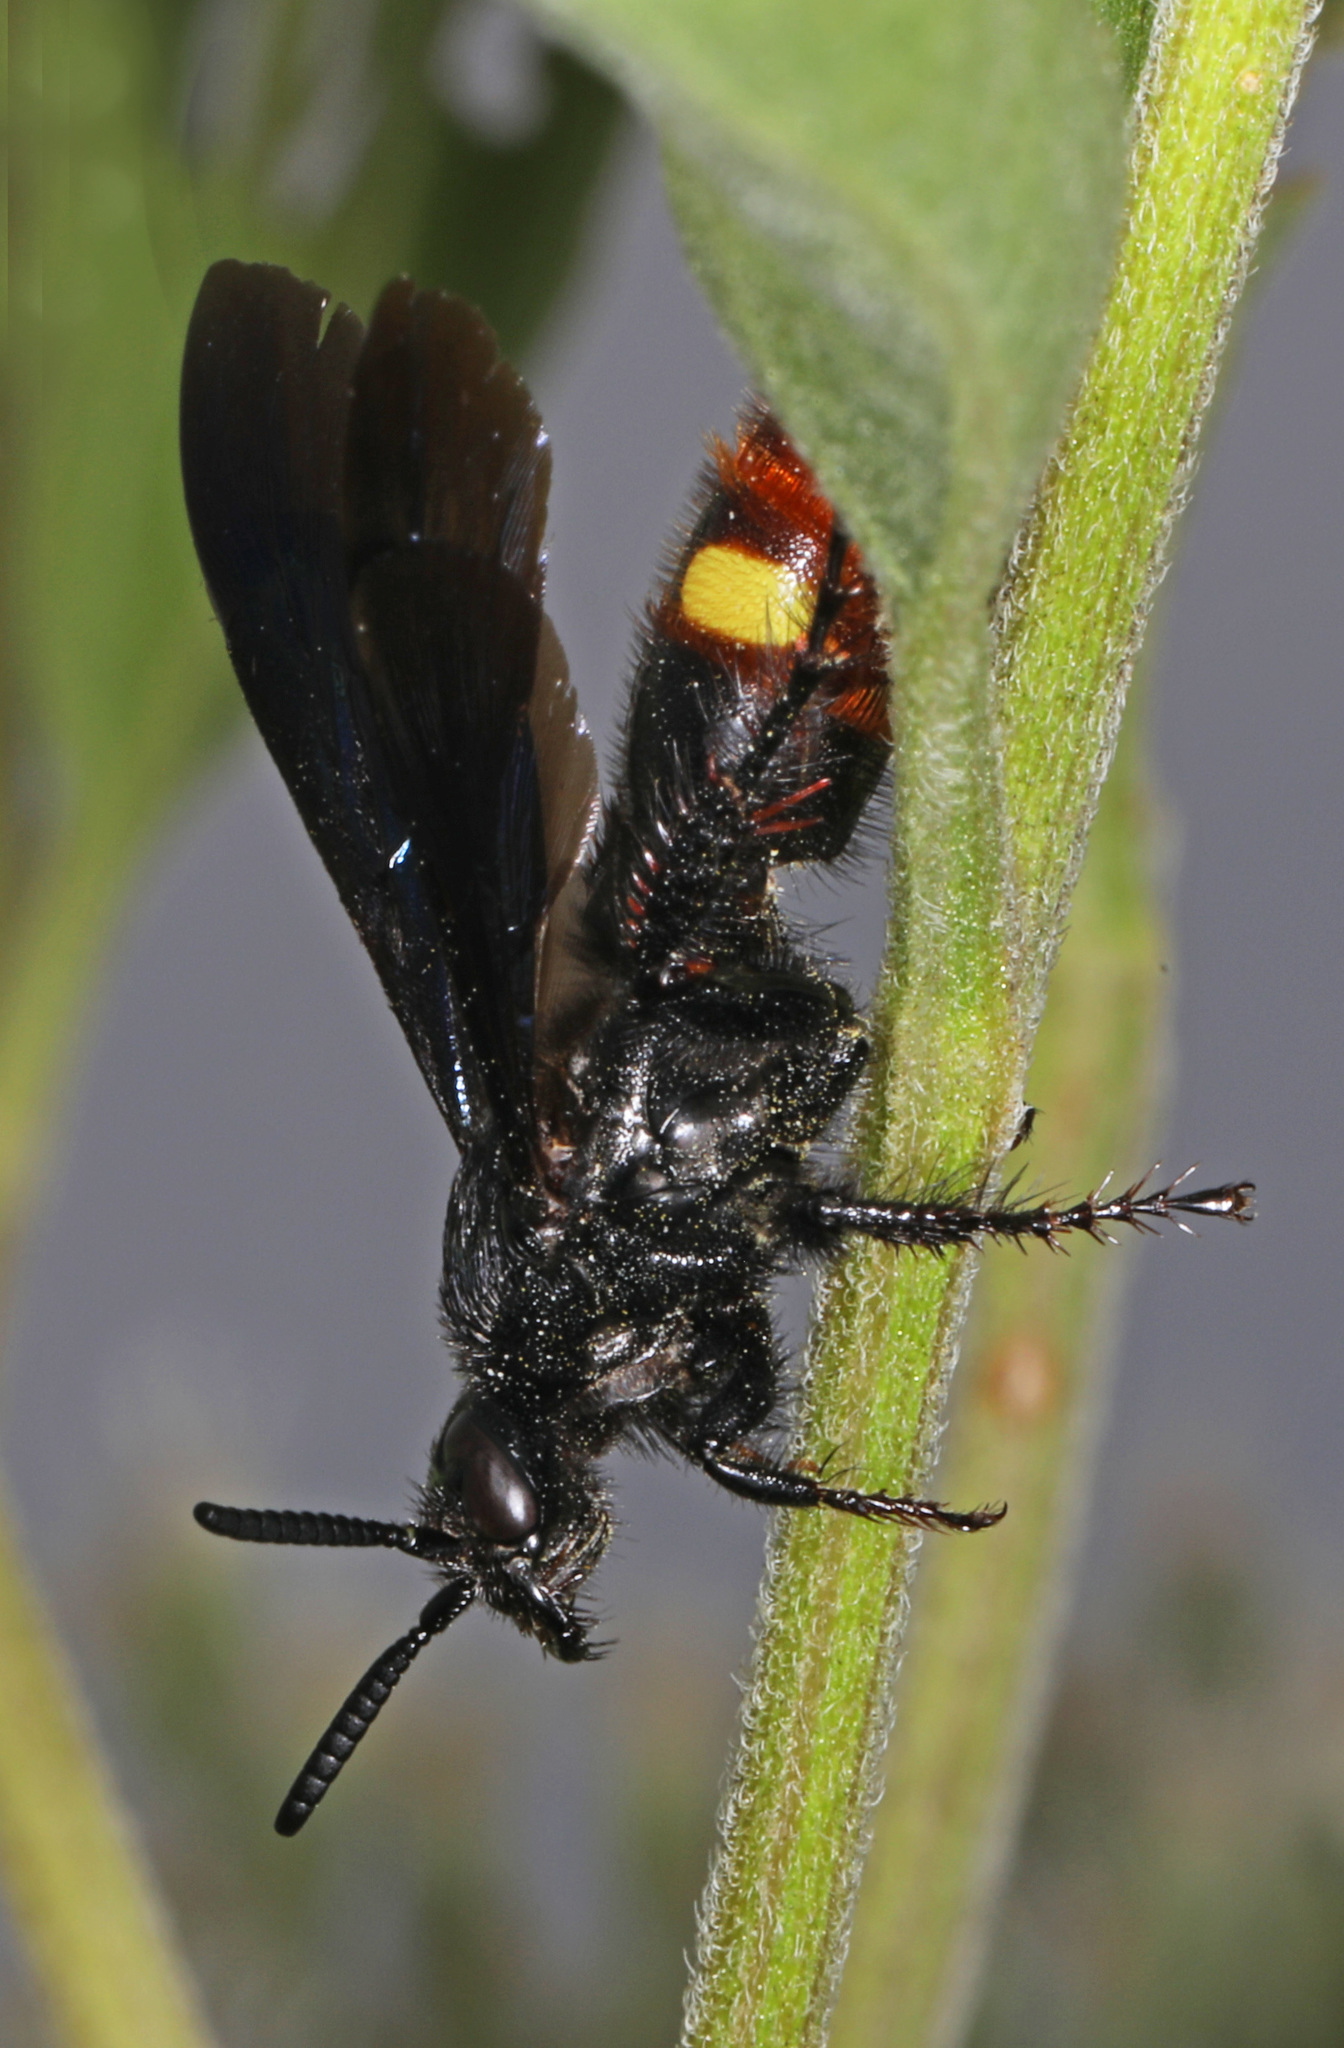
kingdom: Animalia
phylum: Arthropoda
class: Insecta
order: Hymenoptera
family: Scoliidae
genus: Scolia
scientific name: Scolia dubia
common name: Blue-winged scoliid wasp
